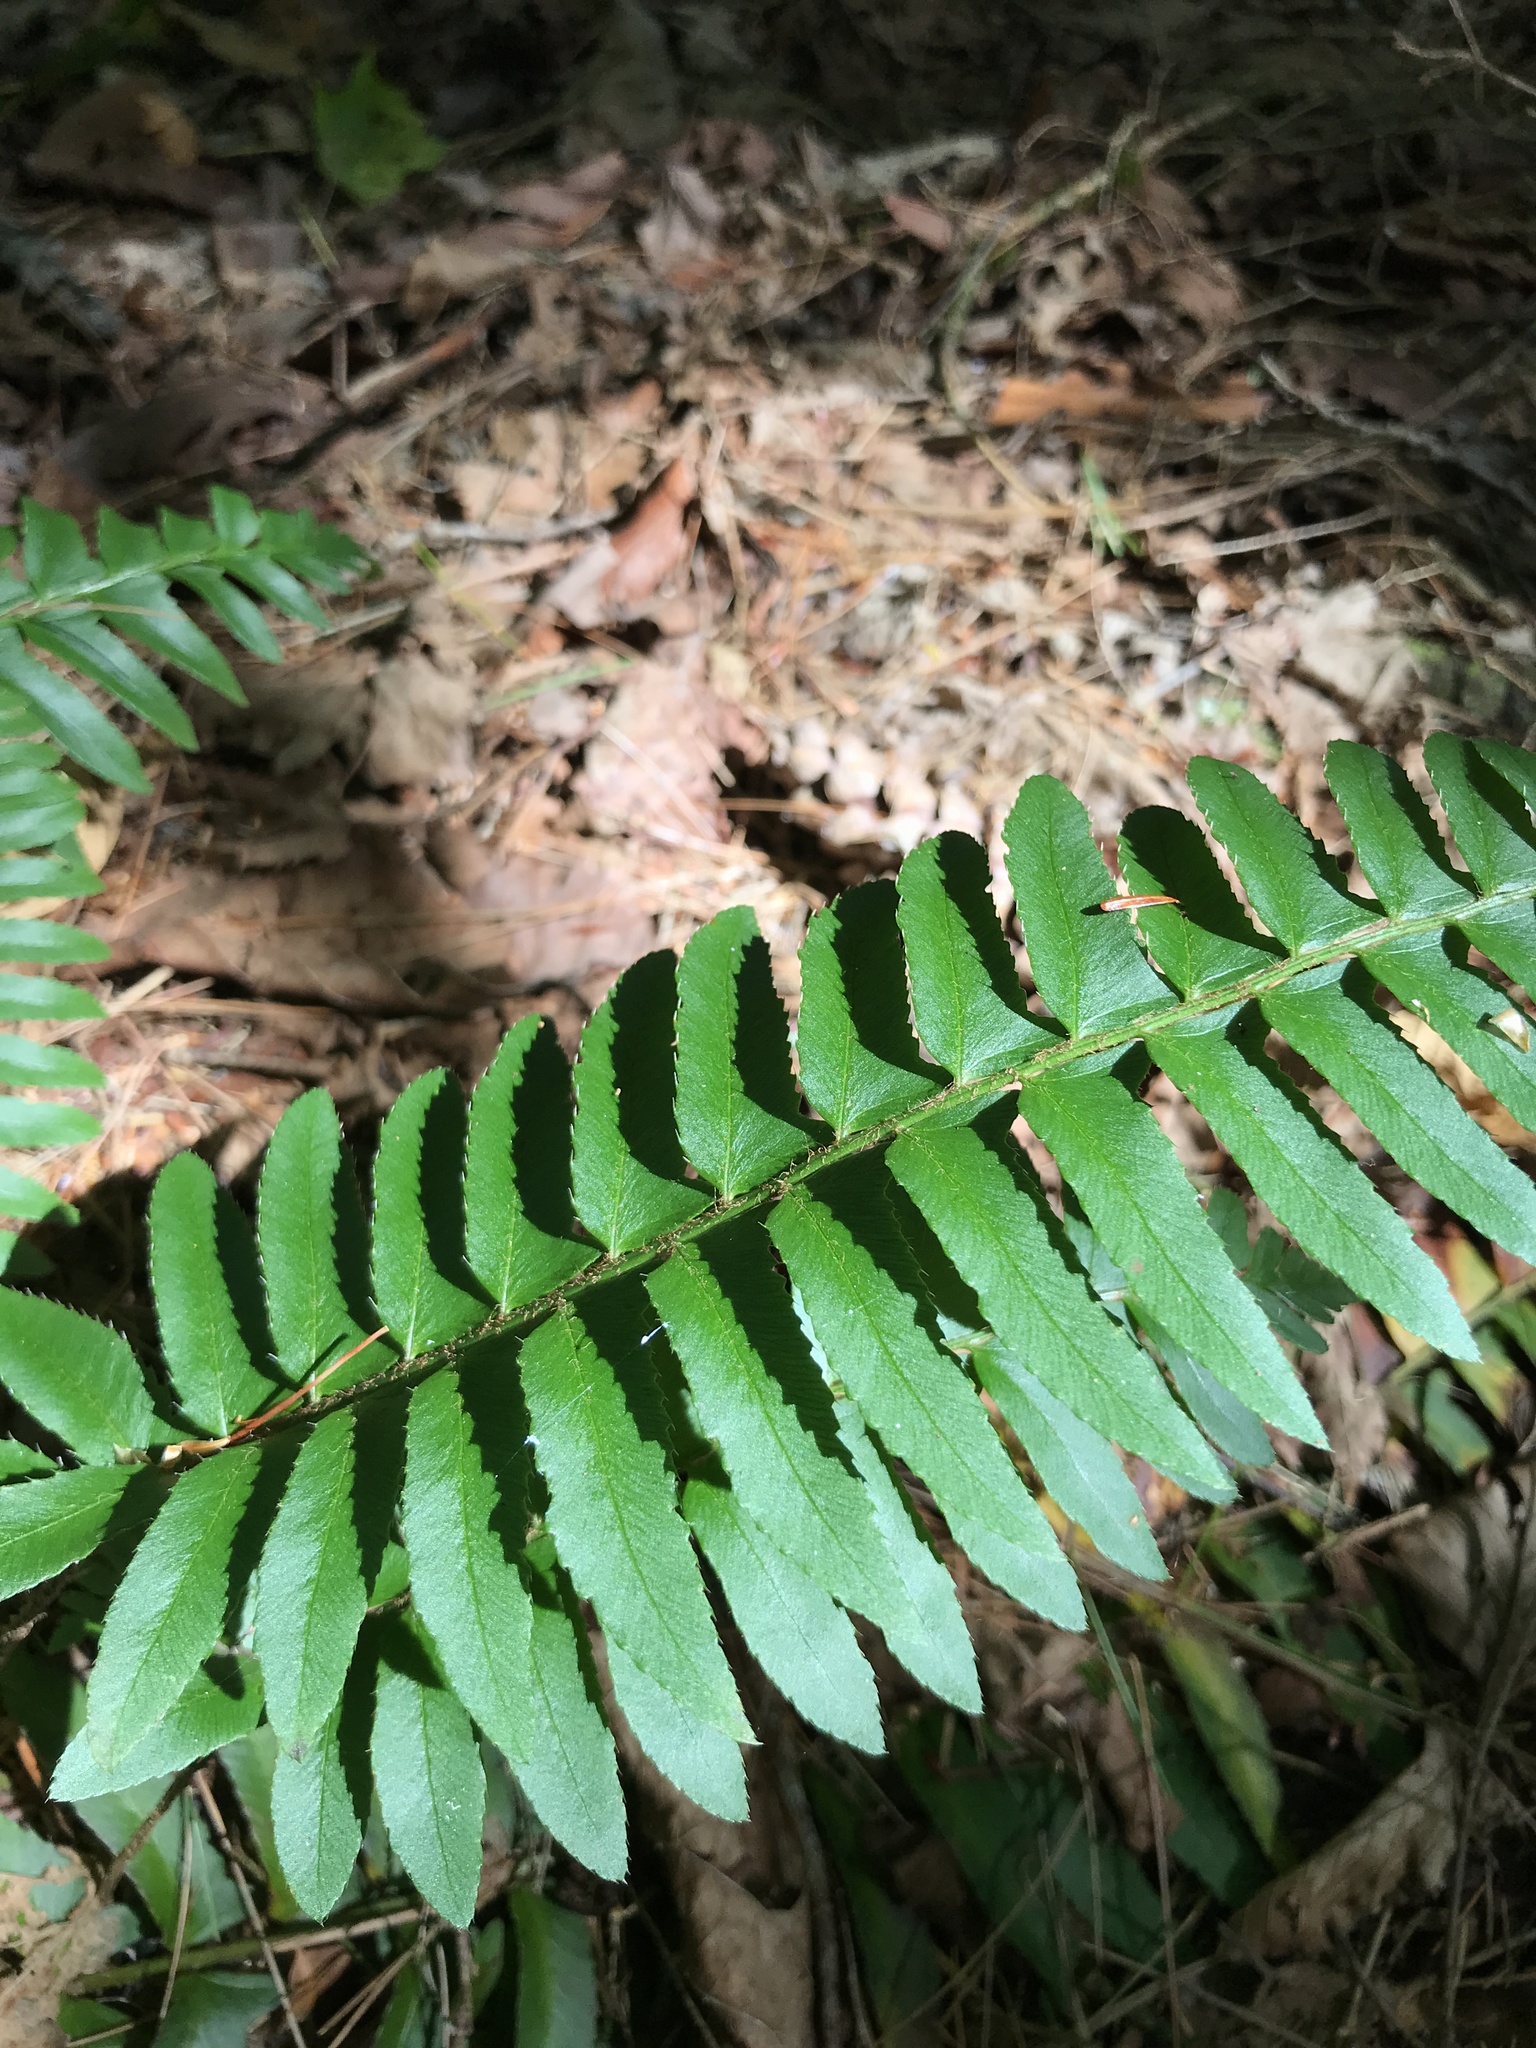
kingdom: Plantae
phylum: Tracheophyta
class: Polypodiopsida
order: Polypodiales
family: Dryopteridaceae
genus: Polystichum
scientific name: Polystichum acrostichoides
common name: Christmas fern
